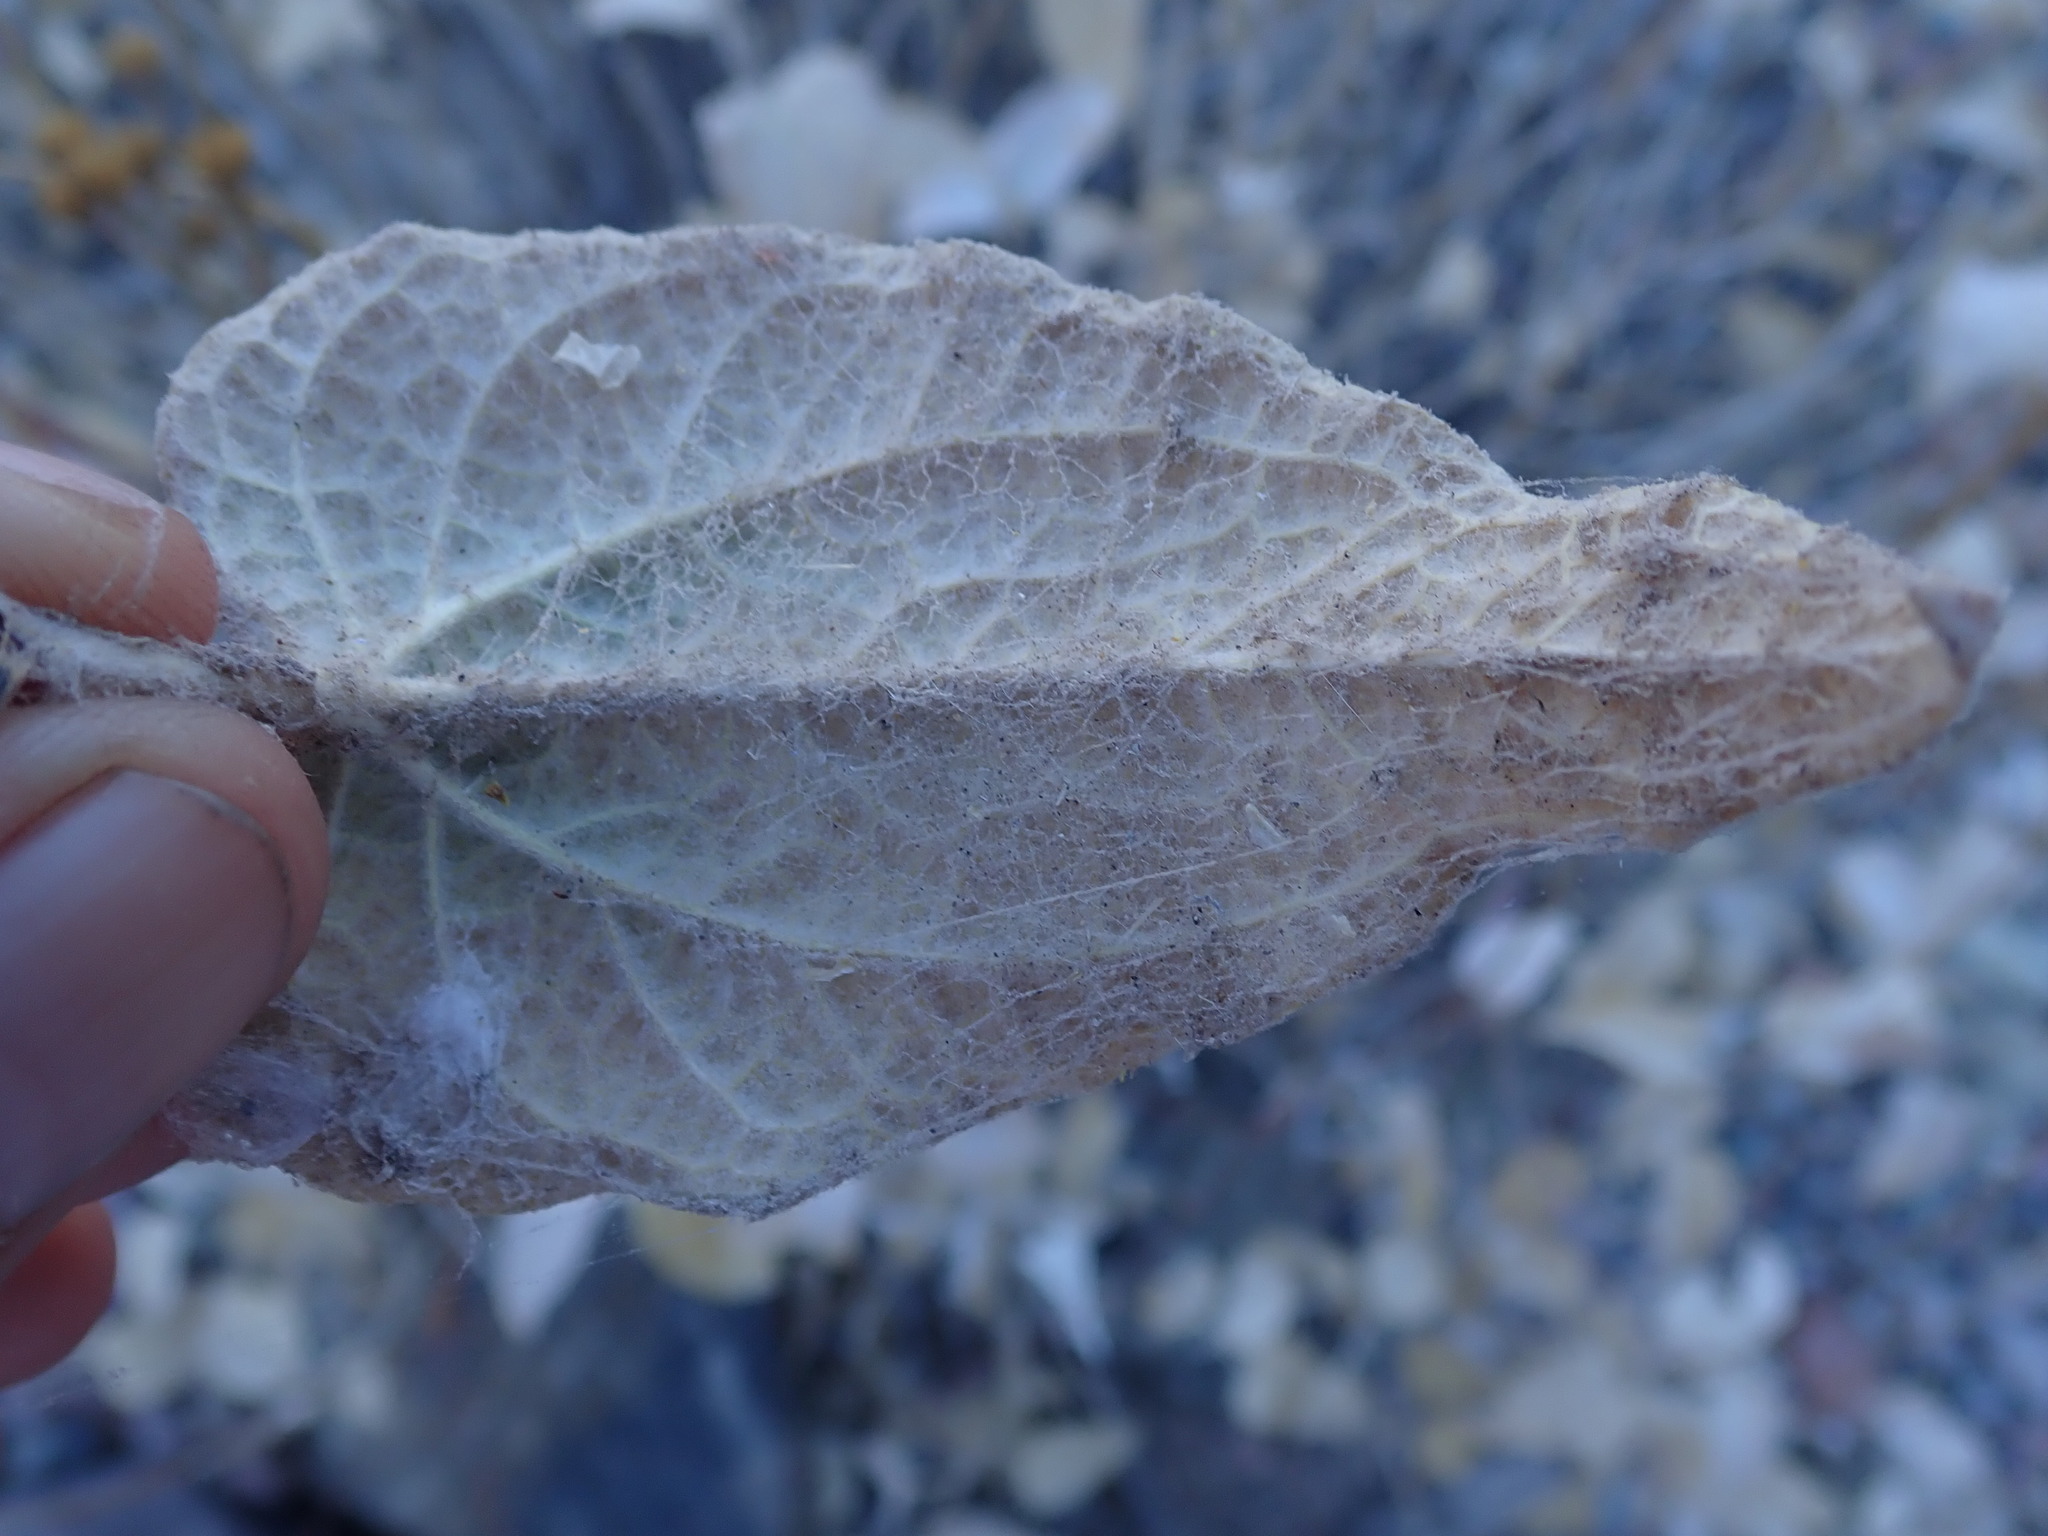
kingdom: Plantae
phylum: Tracheophyta
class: Magnoliopsida
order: Asterales
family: Asteraceae
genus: Bahiopsis
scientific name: Bahiopsis reticulata
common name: Death valley goldeneye
